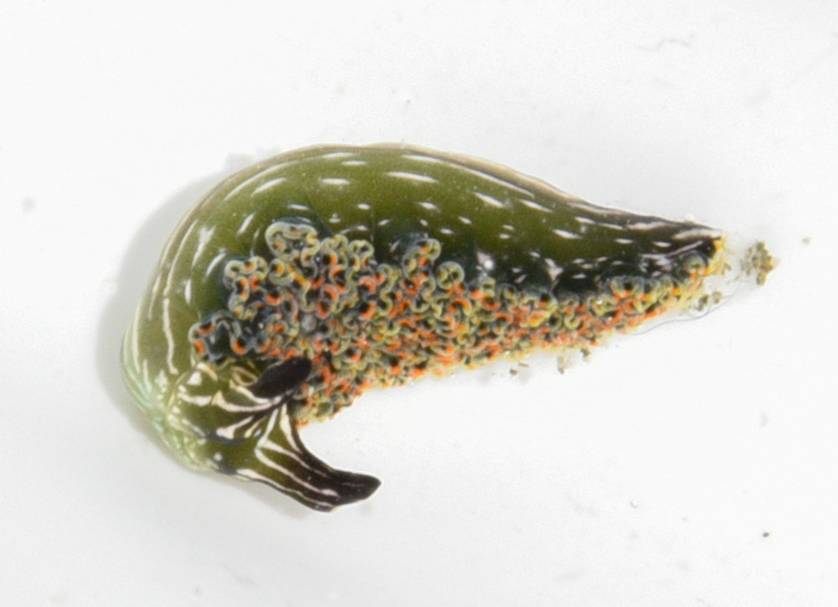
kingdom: Animalia
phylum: Mollusca
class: Gastropoda
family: Plakobranchidae
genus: Elysia
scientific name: Elysia diomedea
